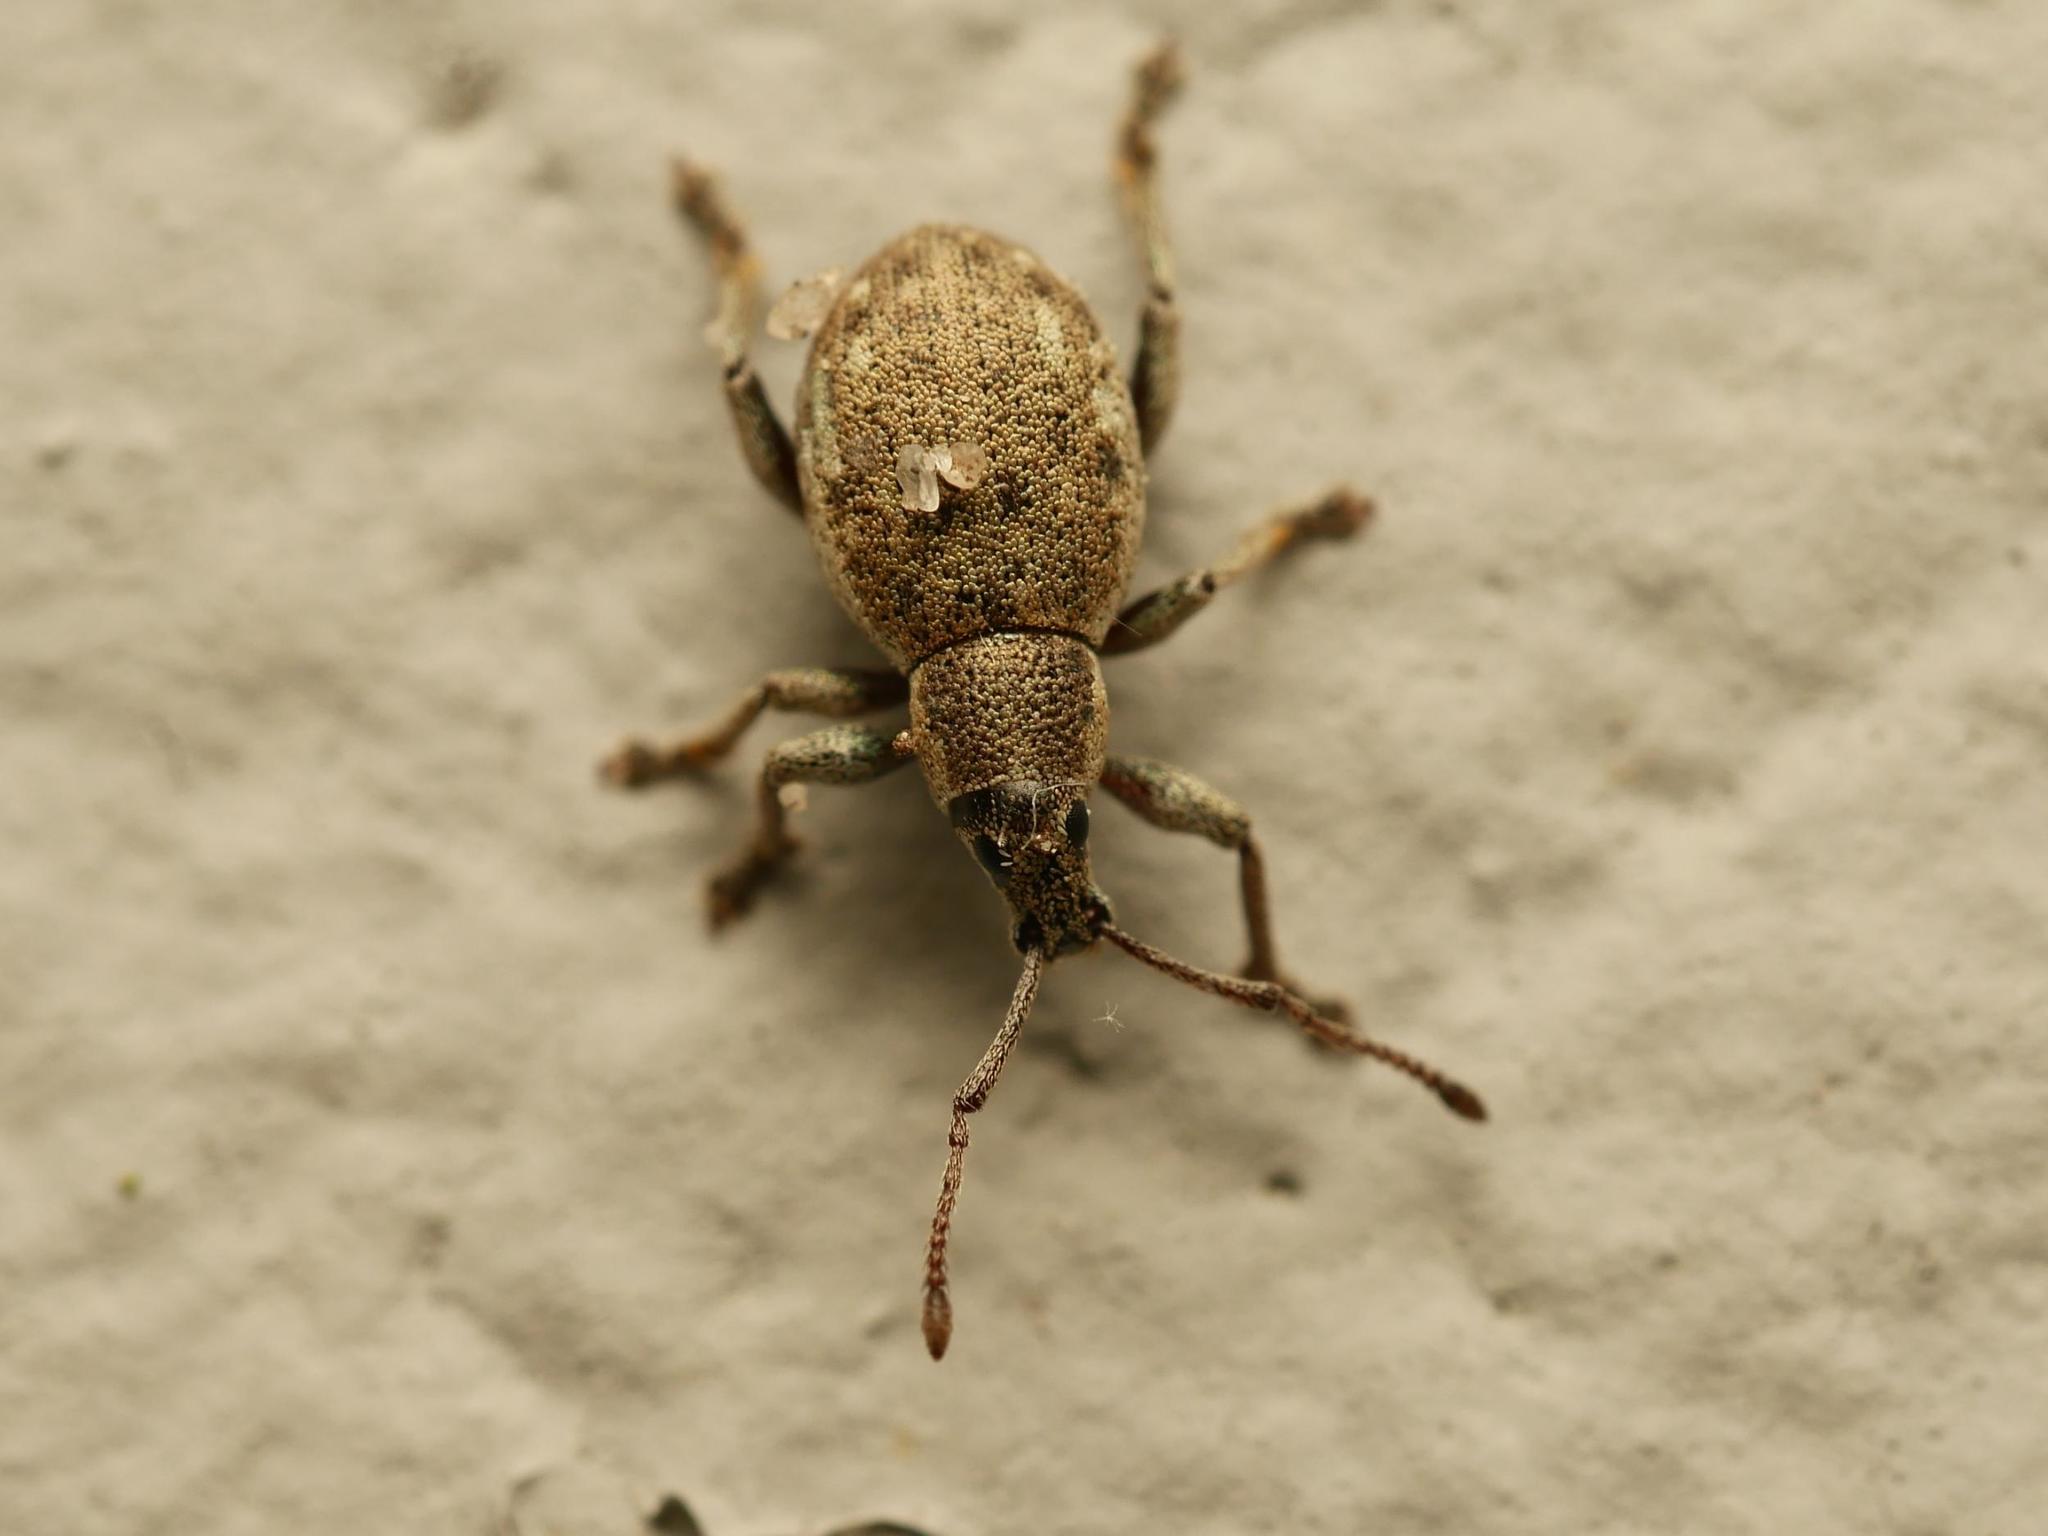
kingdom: Animalia
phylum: Arthropoda
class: Insecta
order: Coleoptera
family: Curculionidae
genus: Peritelus
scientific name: Peritelus sphaeroides
